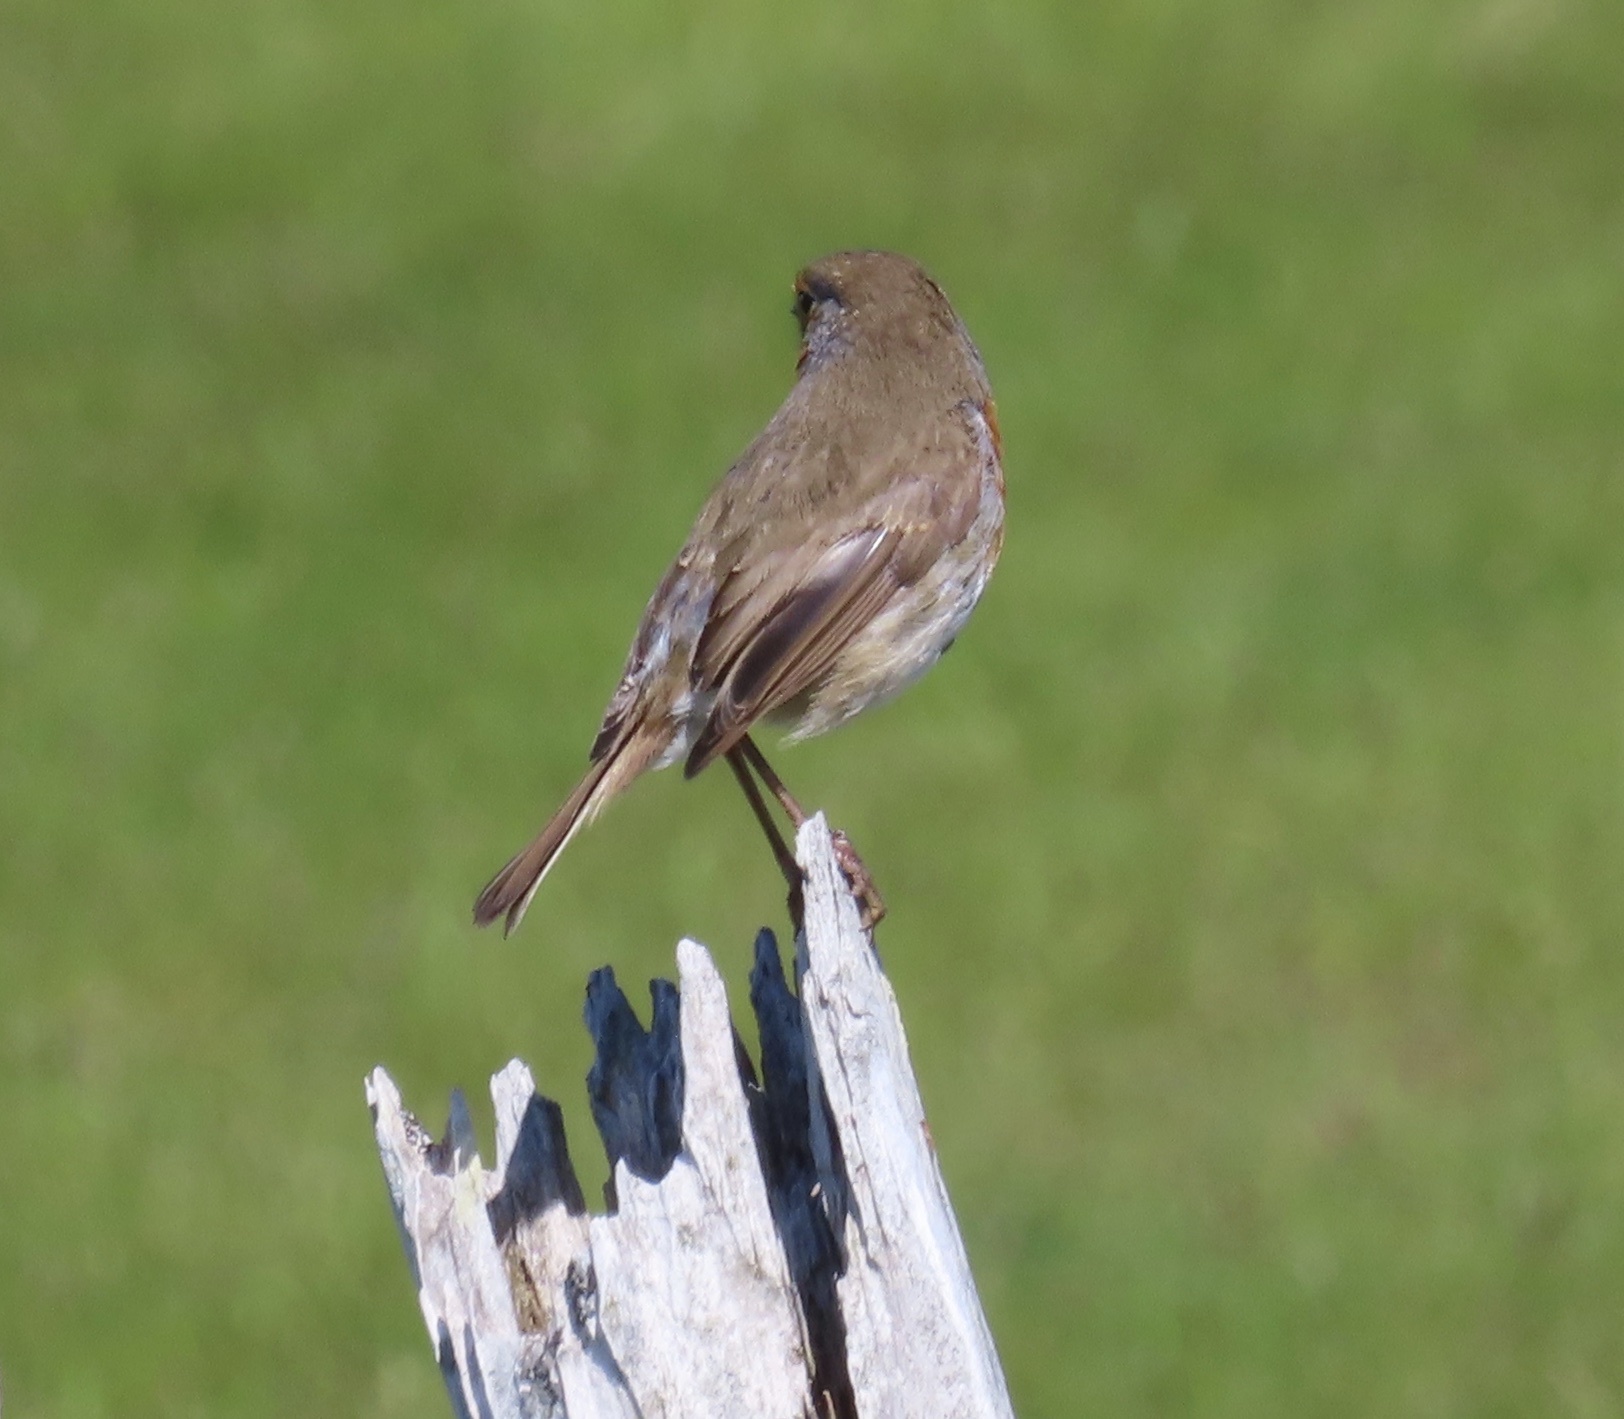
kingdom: Animalia
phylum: Chordata
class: Aves
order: Passeriformes
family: Muscicapidae
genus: Erithacus
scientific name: Erithacus rubecula
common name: European robin
